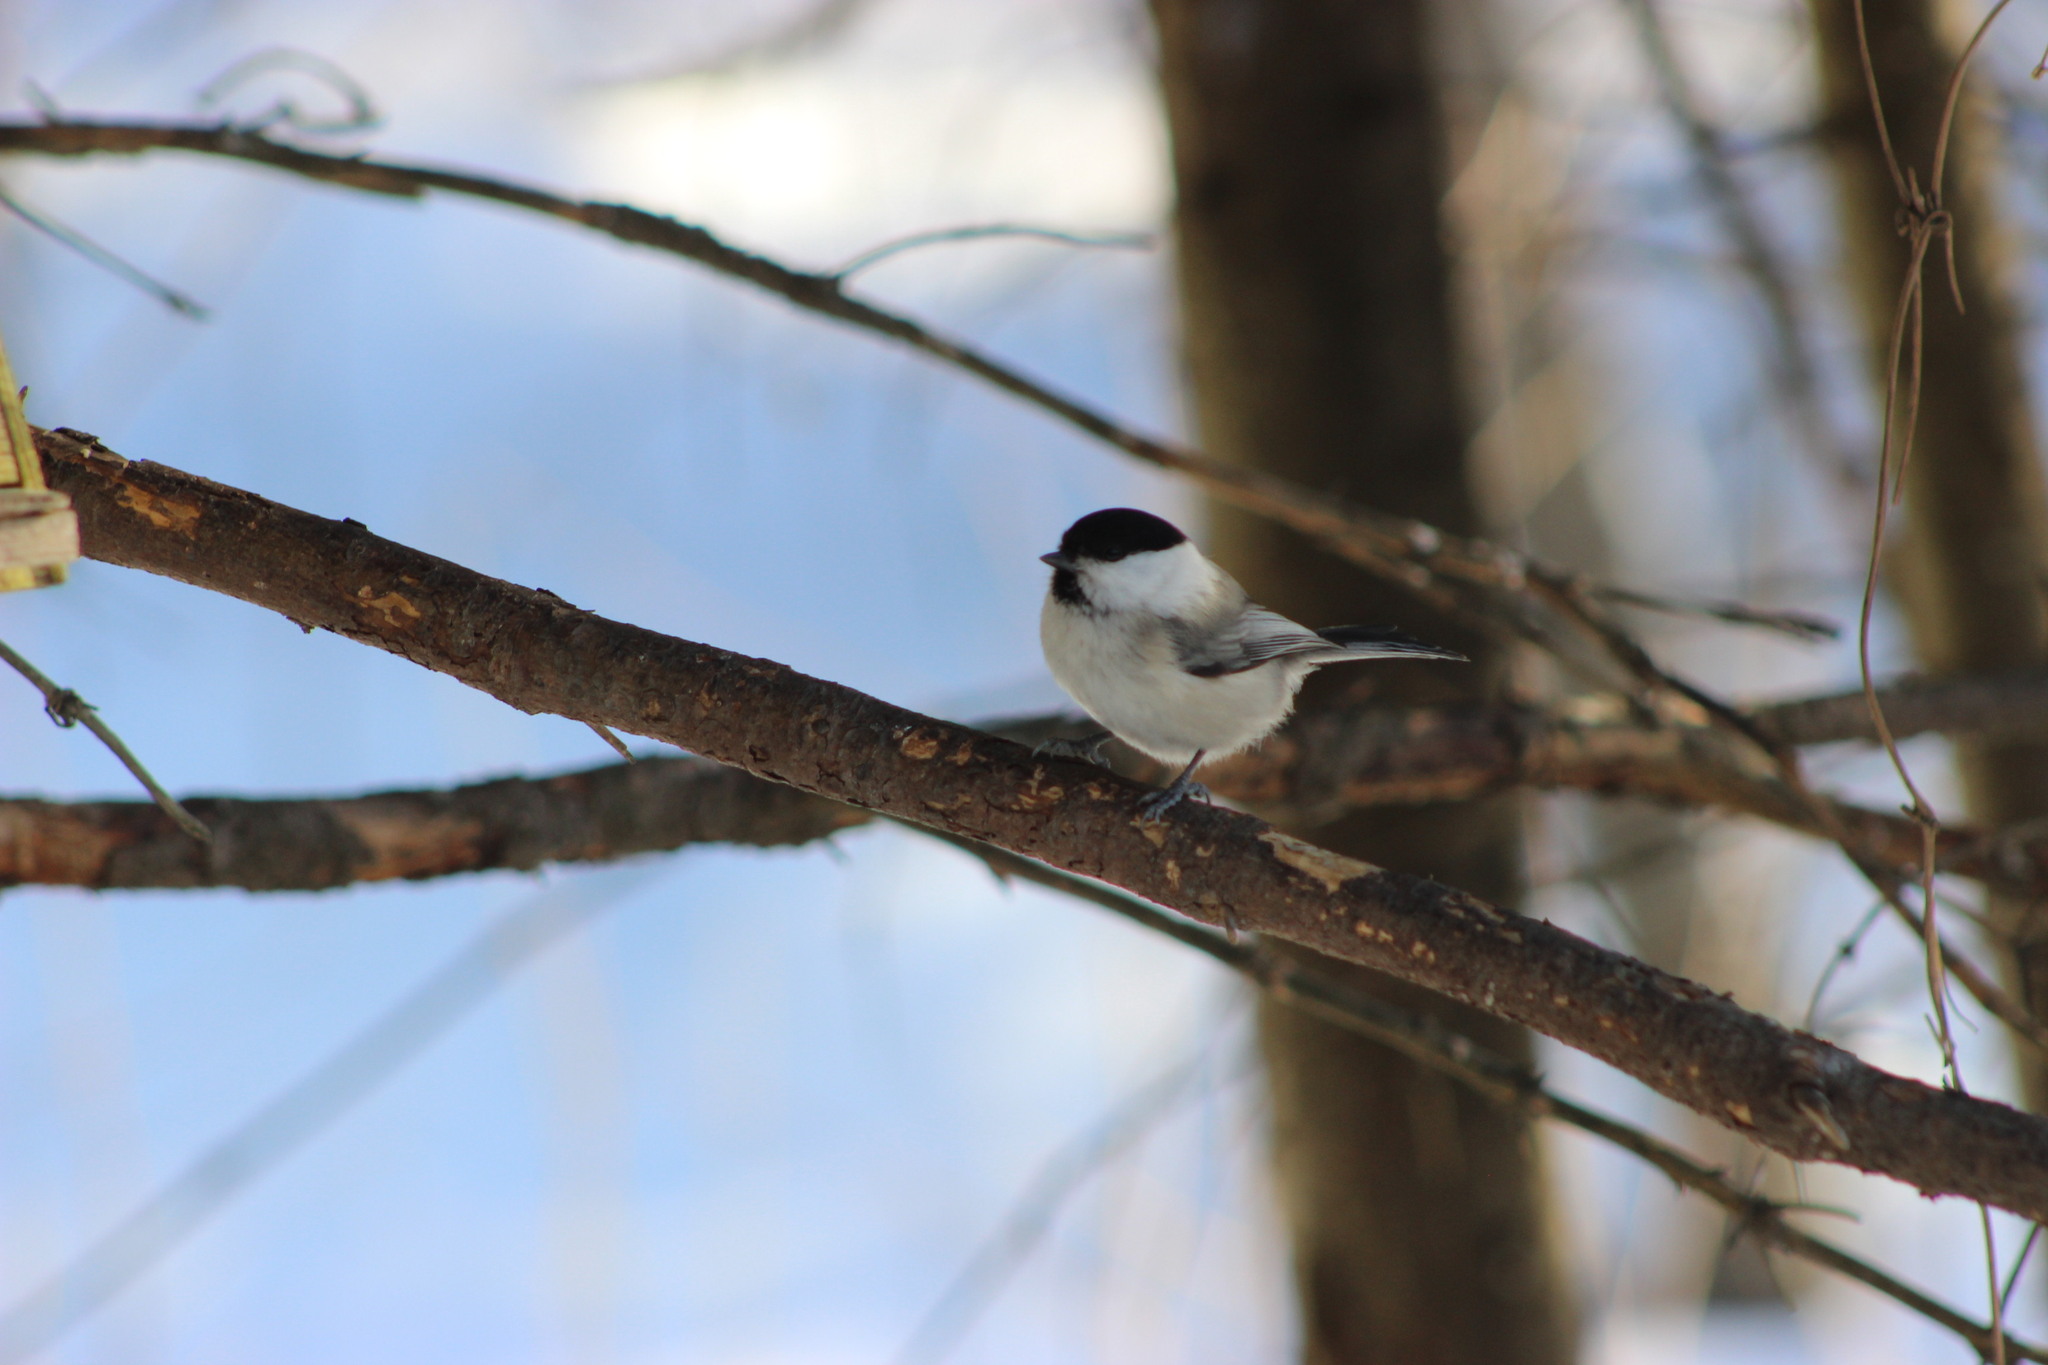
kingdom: Animalia
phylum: Chordata
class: Aves
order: Passeriformes
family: Paridae
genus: Poecile
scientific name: Poecile montanus
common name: Willow tit
